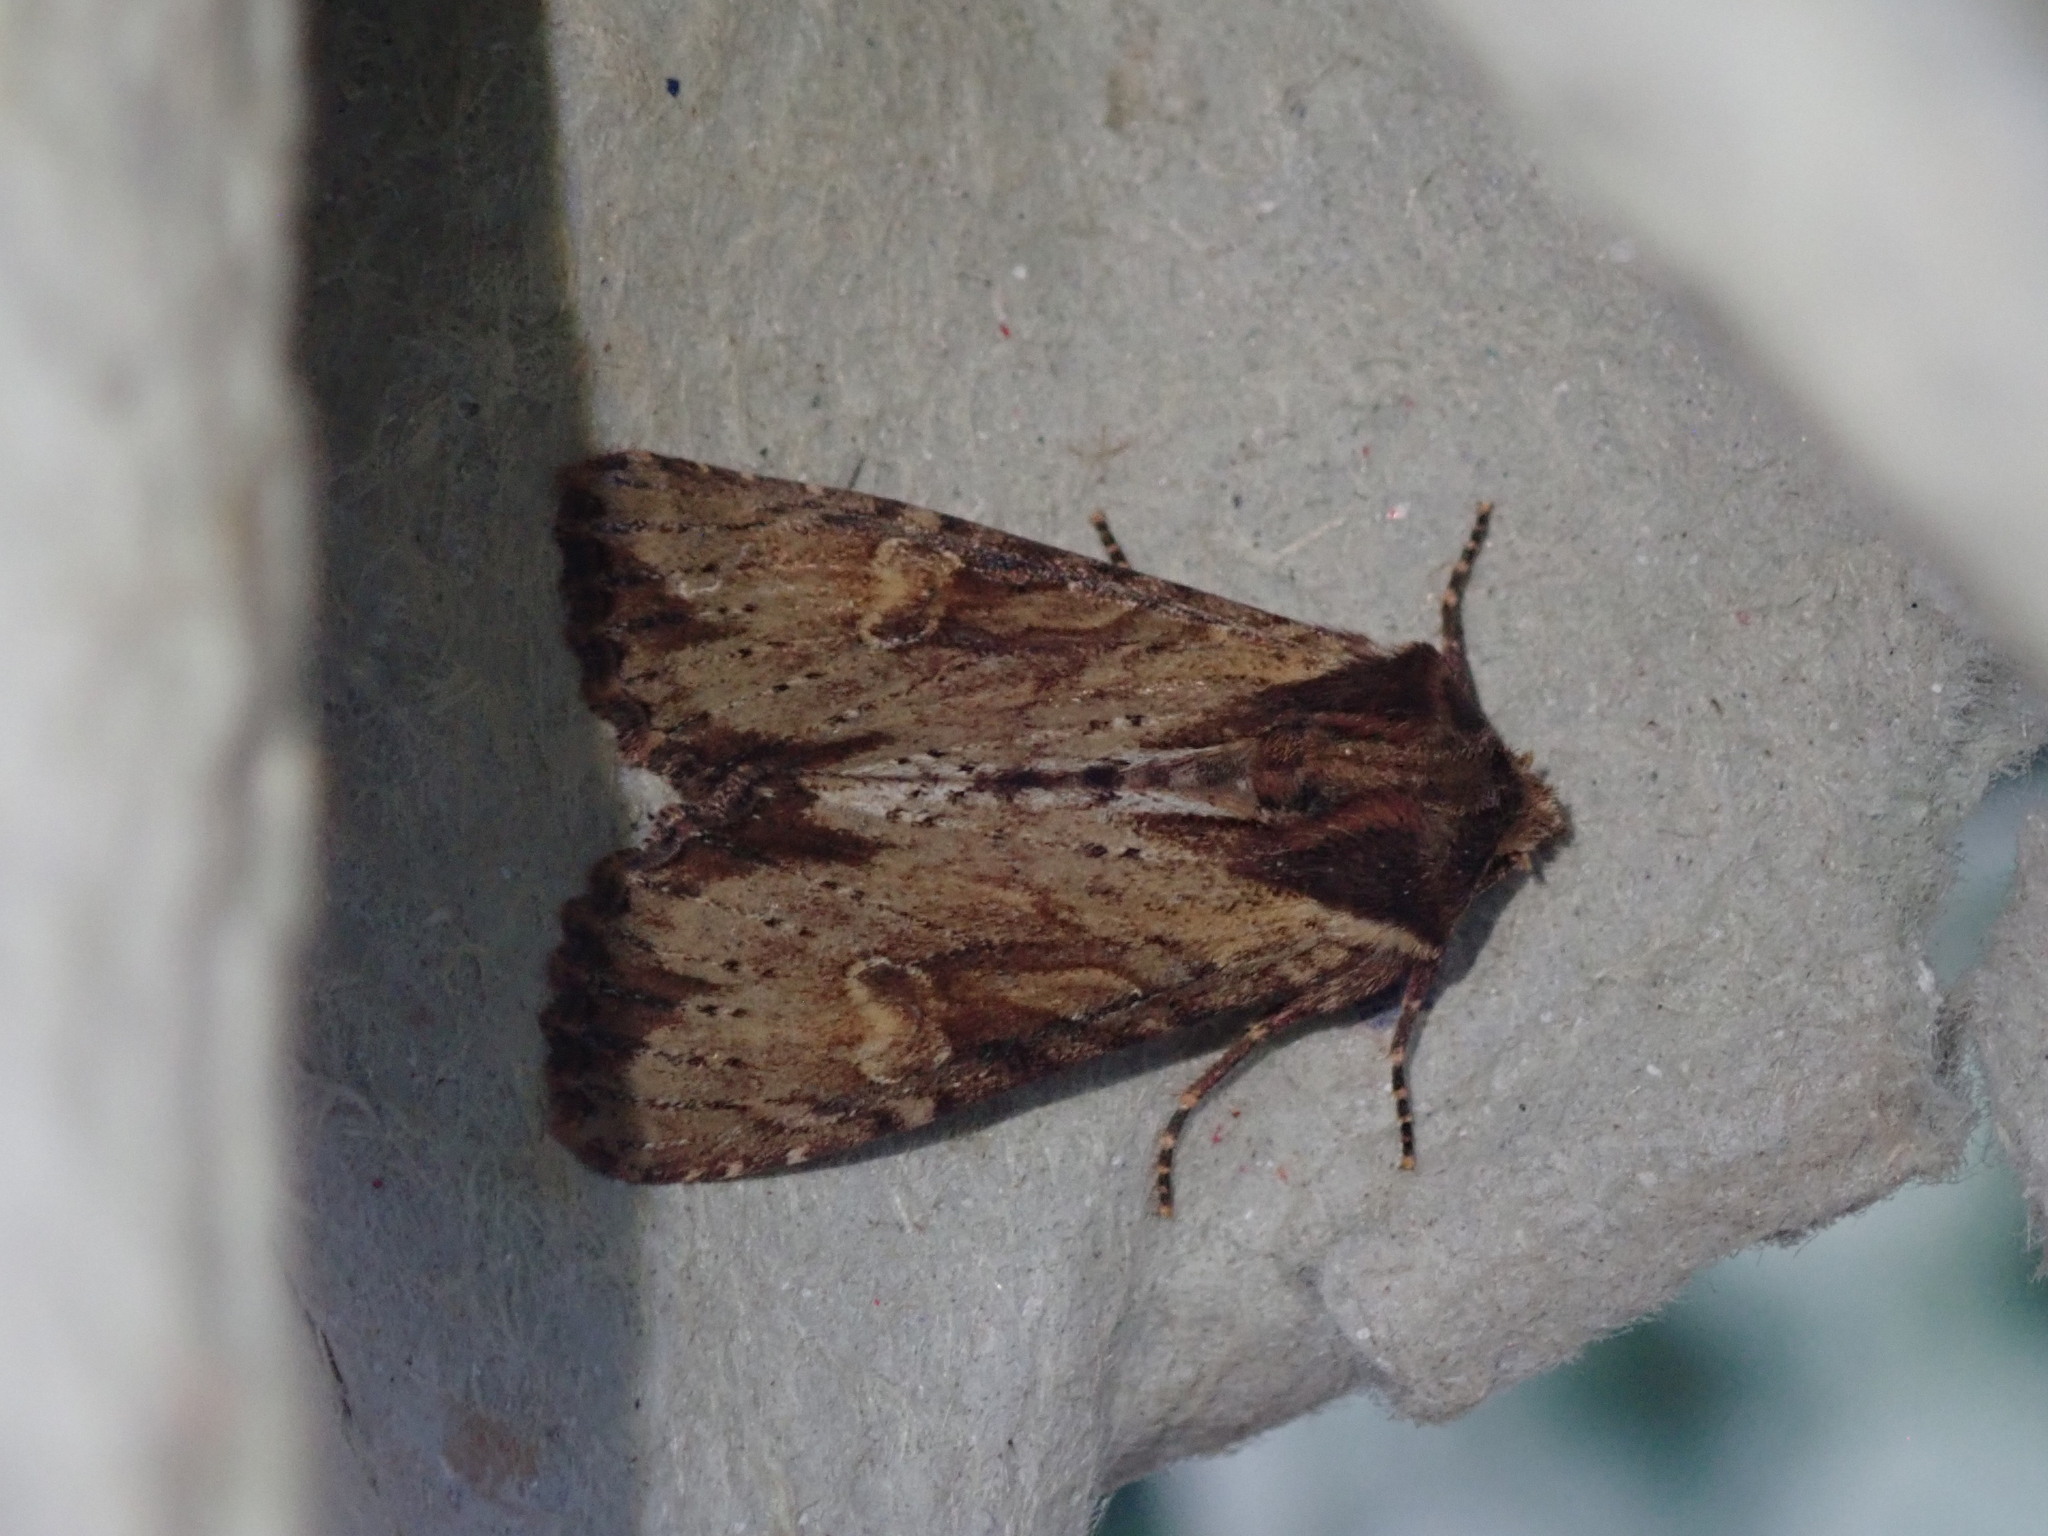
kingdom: Animalia
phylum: Arthropoda
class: Insecta
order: Lepidoptera
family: Noctuidae
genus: Apamea
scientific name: Apamea crenata
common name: Clouded-bordered brindle
